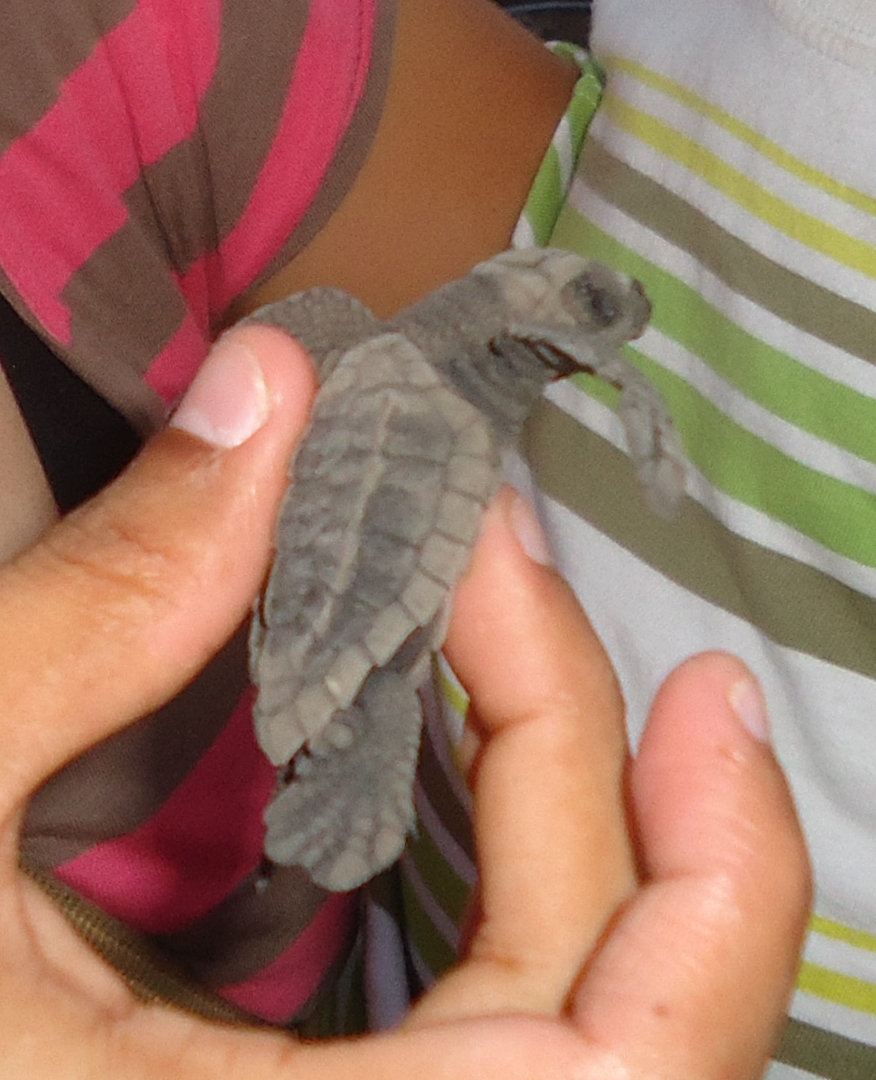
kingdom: Animalia
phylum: Chordata
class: Testudines
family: Cheloniidae
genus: Lepidochelys
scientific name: Lepidochelys olivacea
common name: Olive ridley
